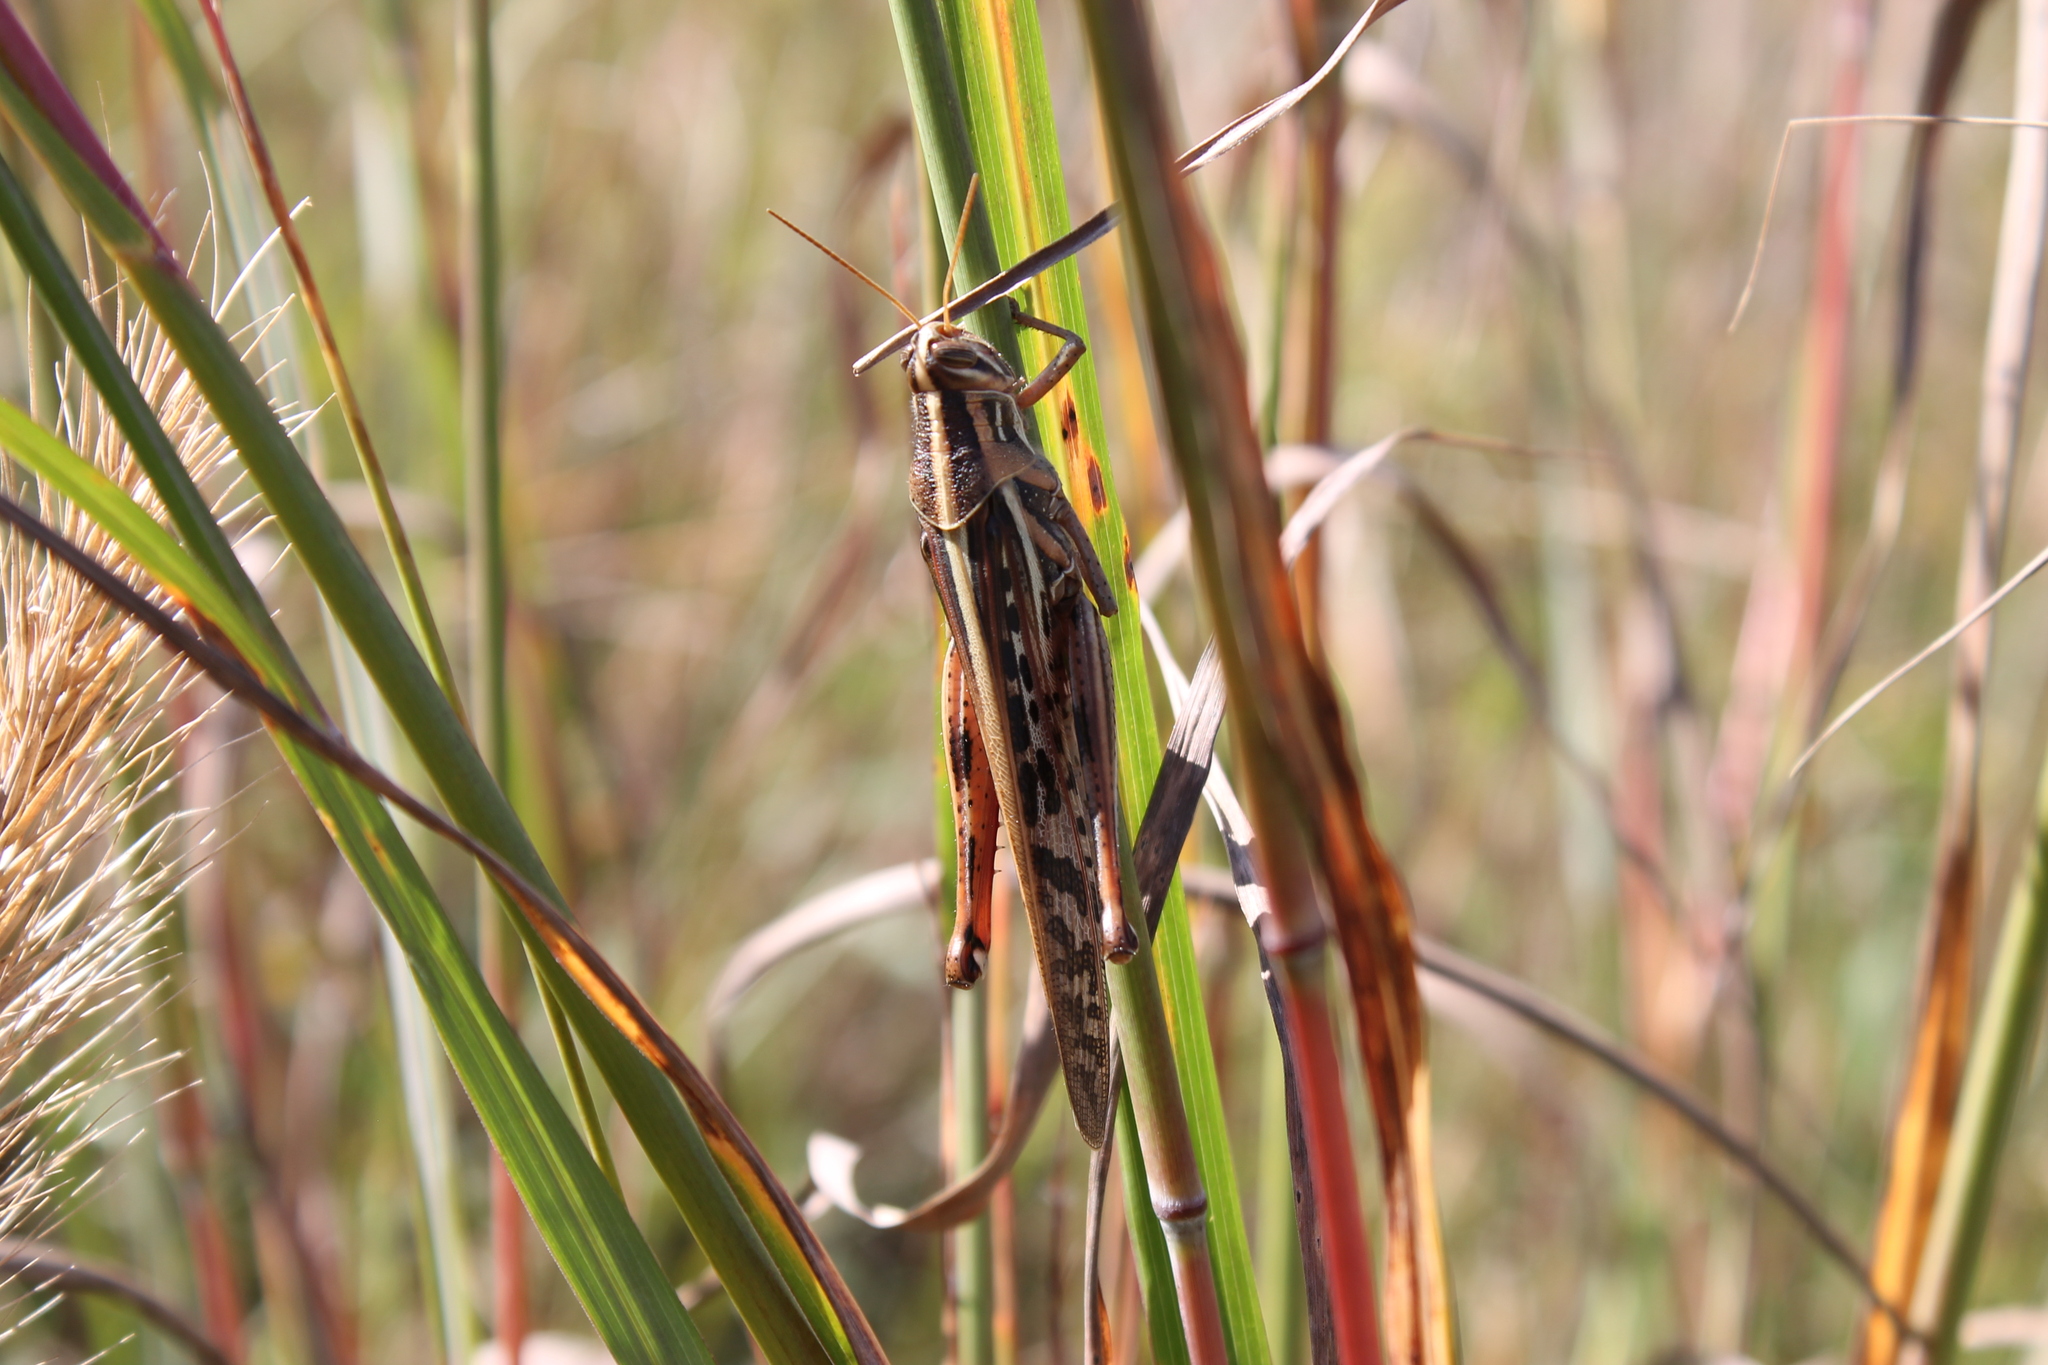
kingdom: Animalia
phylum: Arthropoda
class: Insecta
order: Orthoptera
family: Acrididae
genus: Schistocerca
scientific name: Schistocerca americana
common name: American bird locust
